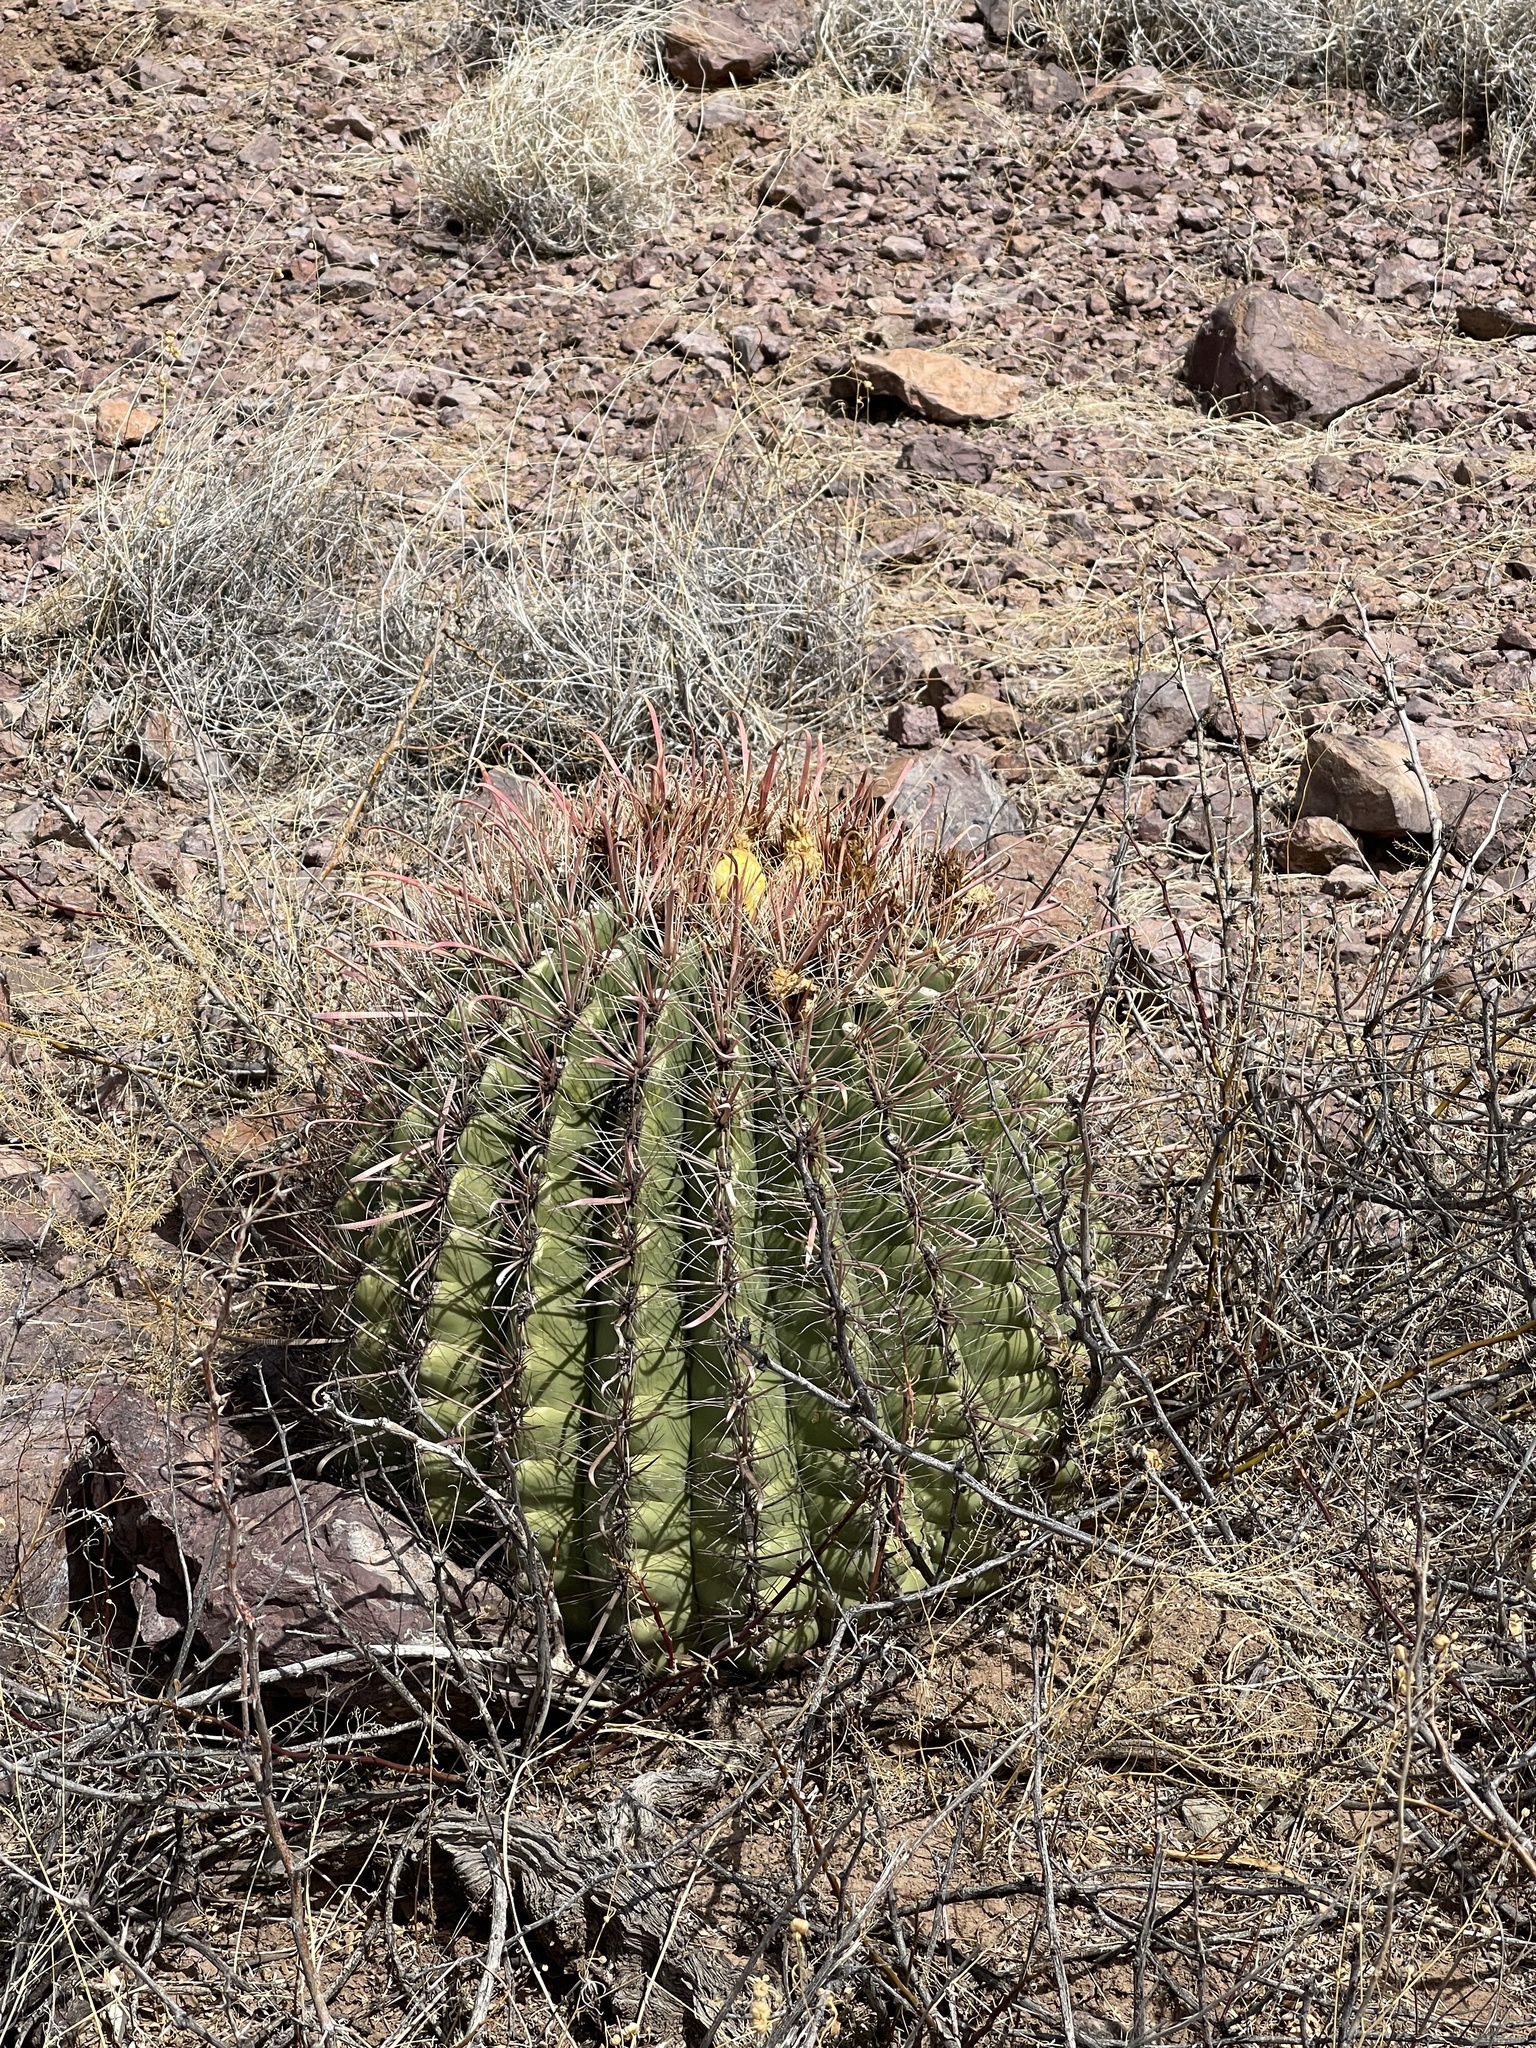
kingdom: Plantae
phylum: Tracheophyta
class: Magnoliopsida
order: Caryophyllales
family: Cactaceae
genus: Ferocactus
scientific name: Ferocactus wislizeni
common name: Candy barrel cactus
